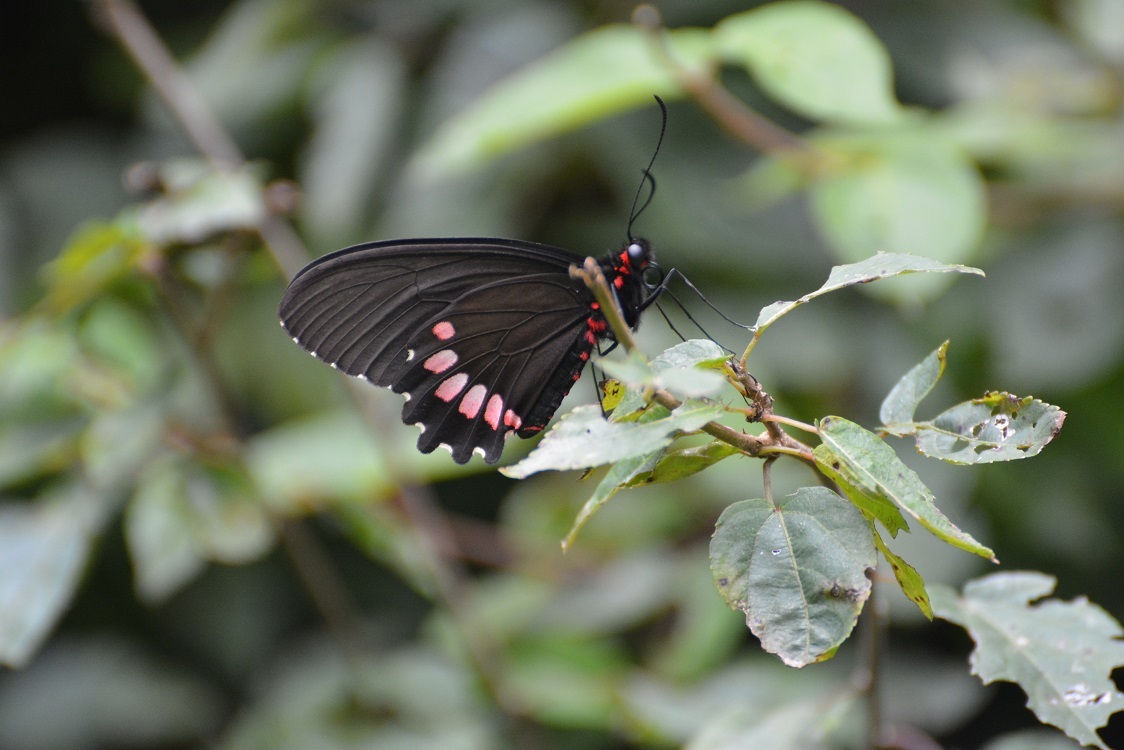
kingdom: Animalia
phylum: Arthropoda
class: Insecta
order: Lepidoptera
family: Papilionidae
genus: Parides
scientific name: Parides erithalion
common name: Variable cattleheart
